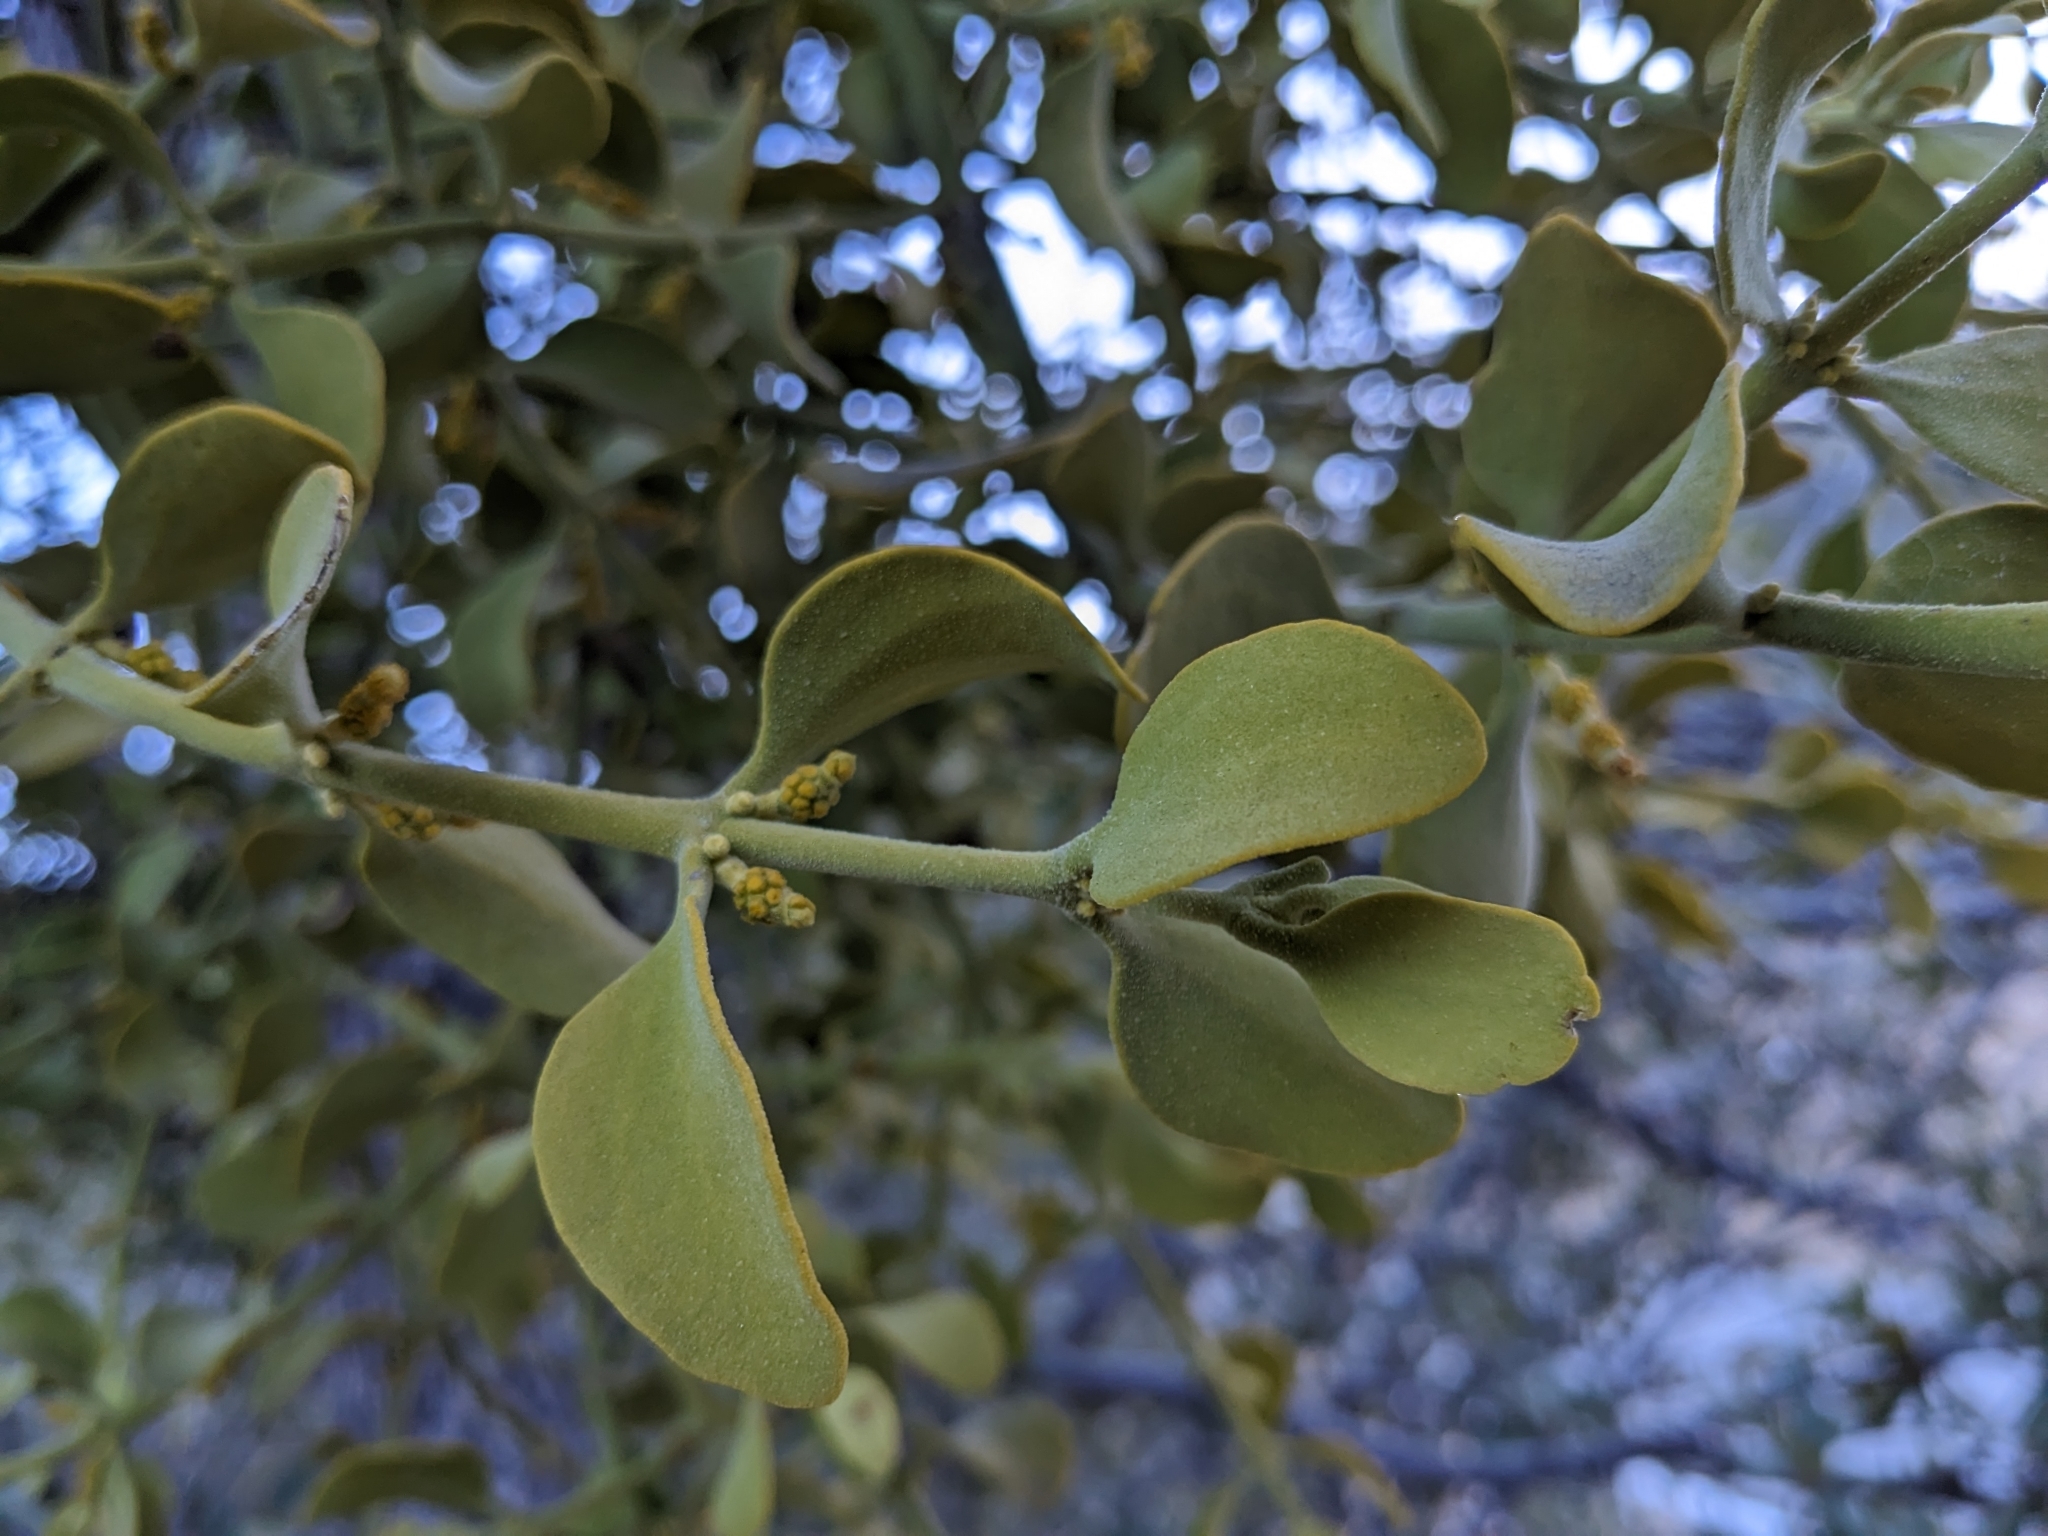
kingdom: Plantae
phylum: Tracheophyta
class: Magnoliopsida
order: Santalales
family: Viscaceae
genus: Phoradendron
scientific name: Phoradendron coryae
